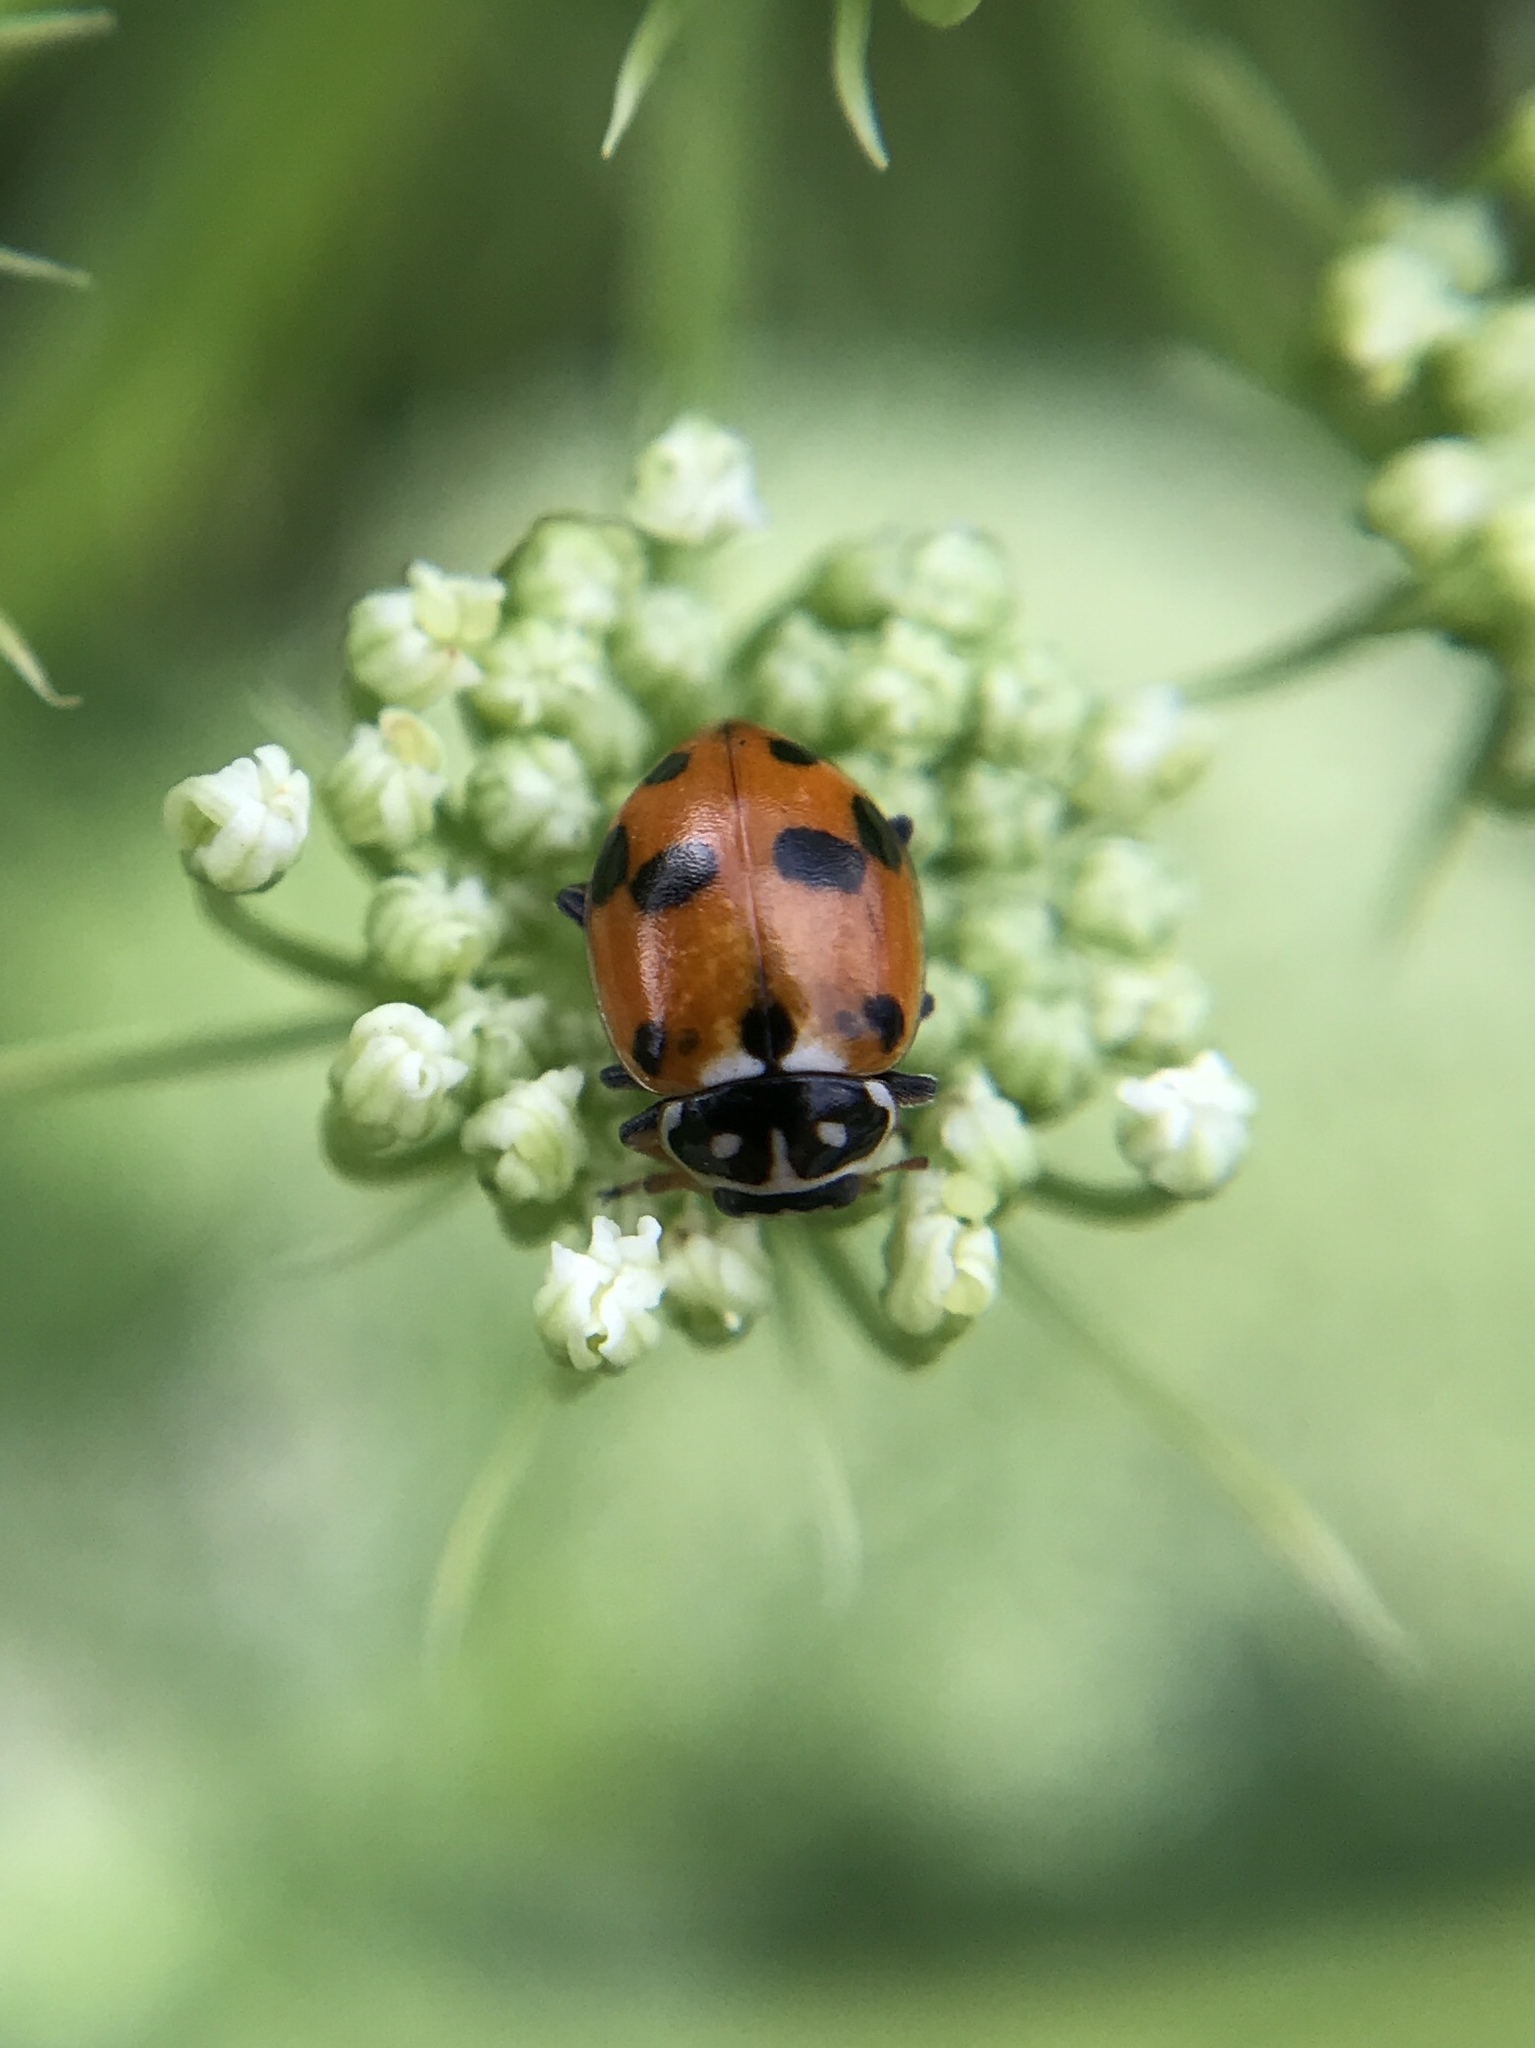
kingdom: Animalia
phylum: Arthropoda
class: Insecta
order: Coleoptera
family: Coccinellidae
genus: Hippodamia
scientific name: Hippodamia variegata
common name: Ladybird beetle
